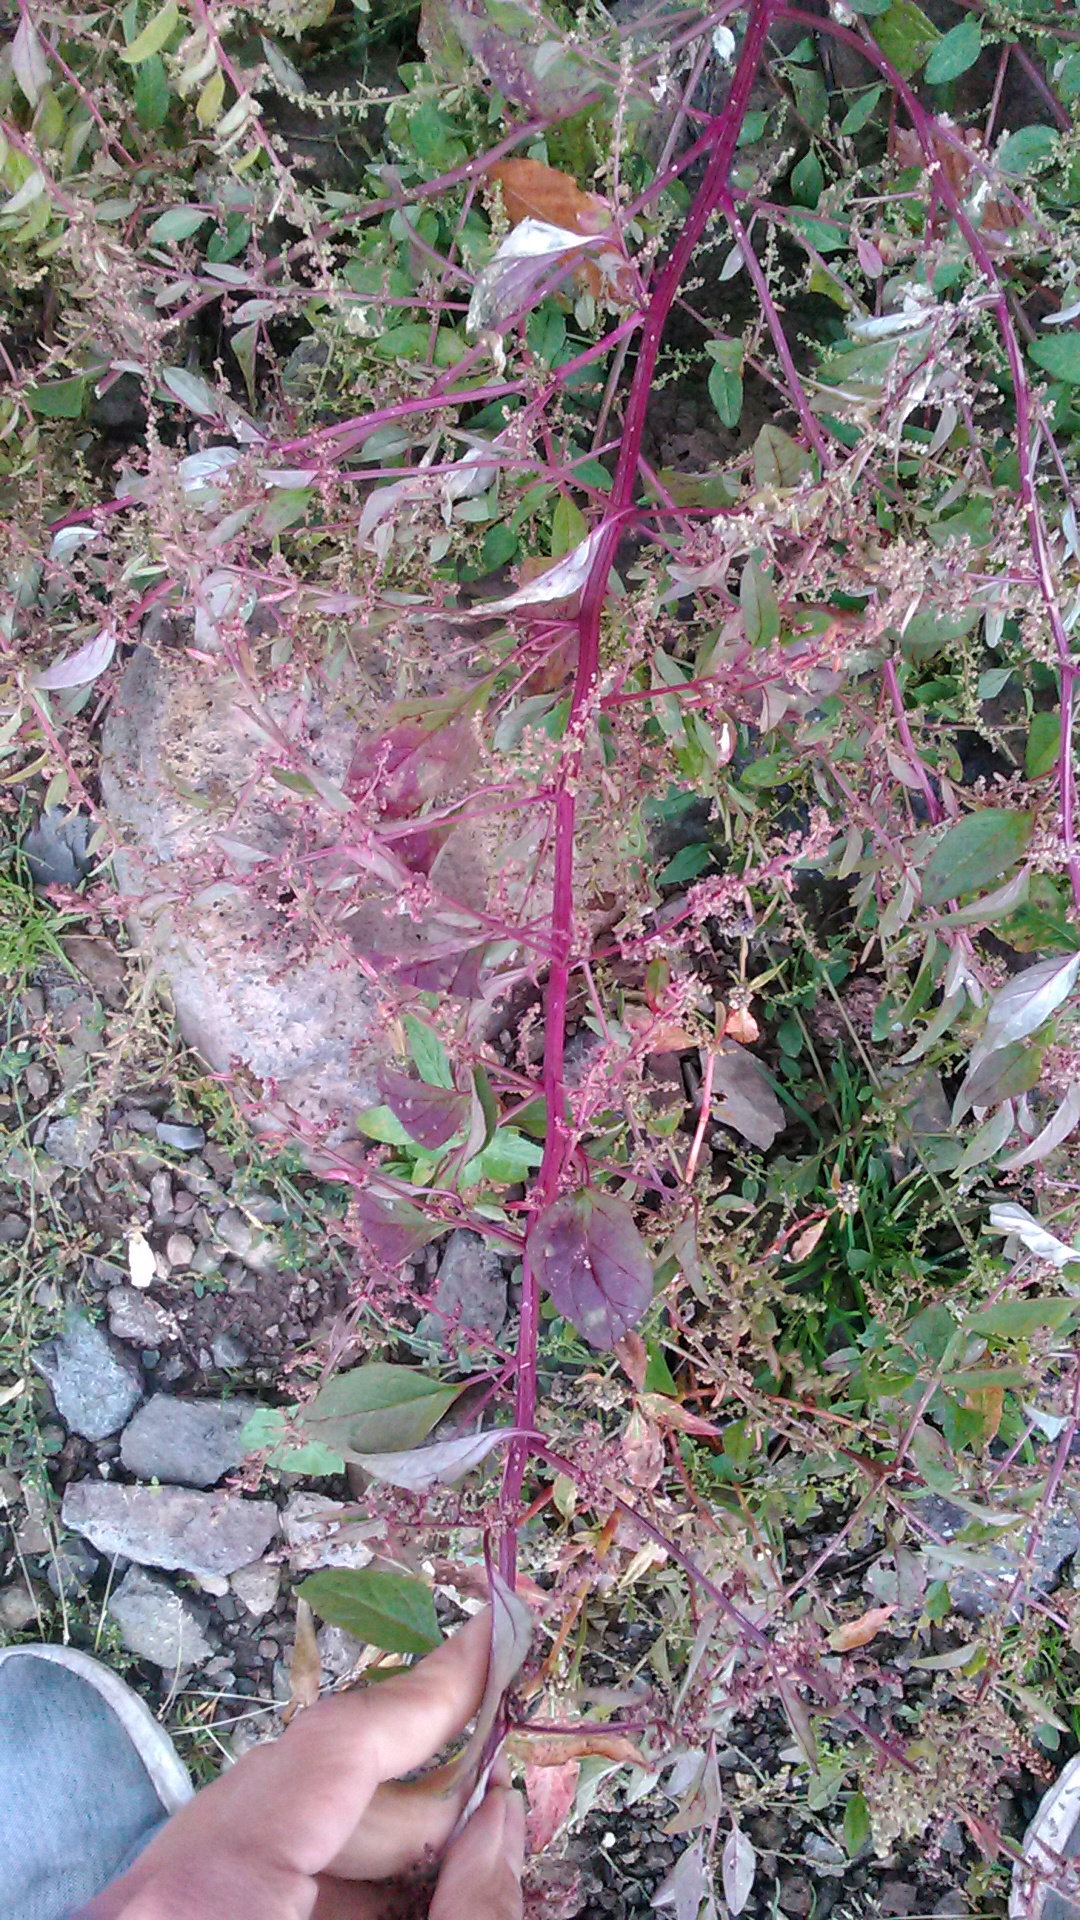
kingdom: Plantae
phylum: Tracheophyta
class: Magnoliopsida
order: Caryophyllales
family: Amaranthaceae
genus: Lipandra
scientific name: Lipandra polysperma
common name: Many-seed goosefoot
